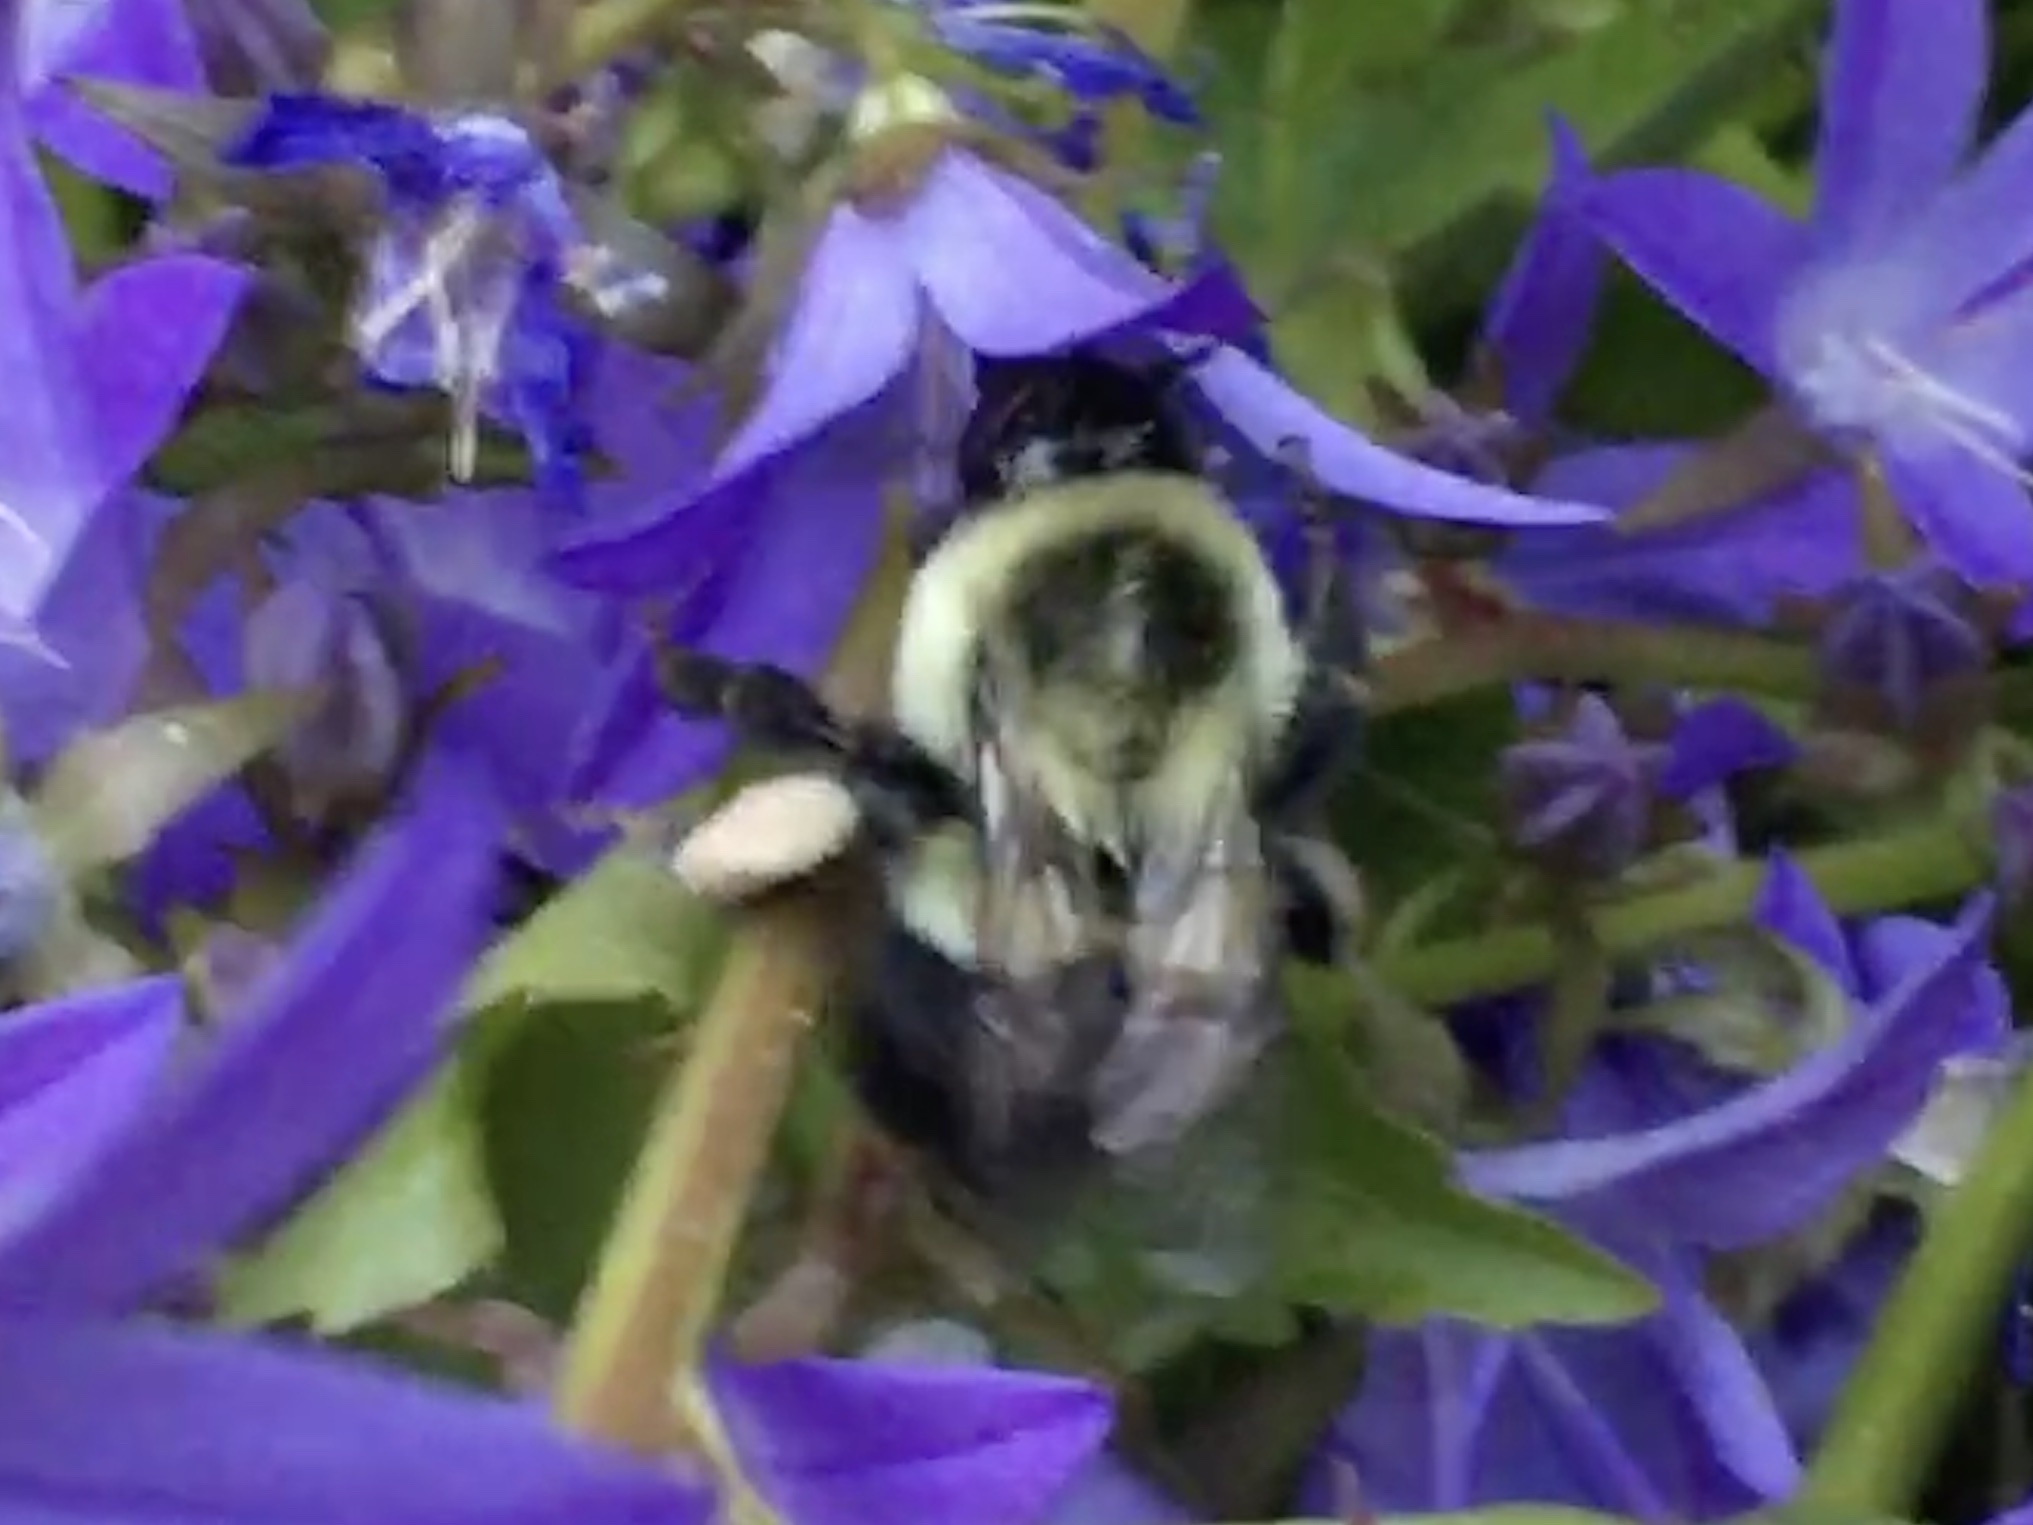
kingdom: Animalia
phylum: Arthropoda
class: Insecta
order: Hymenoptera
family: Apidae
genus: Bombus
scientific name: Bombus impatiens
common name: Common eastern bumble bee
